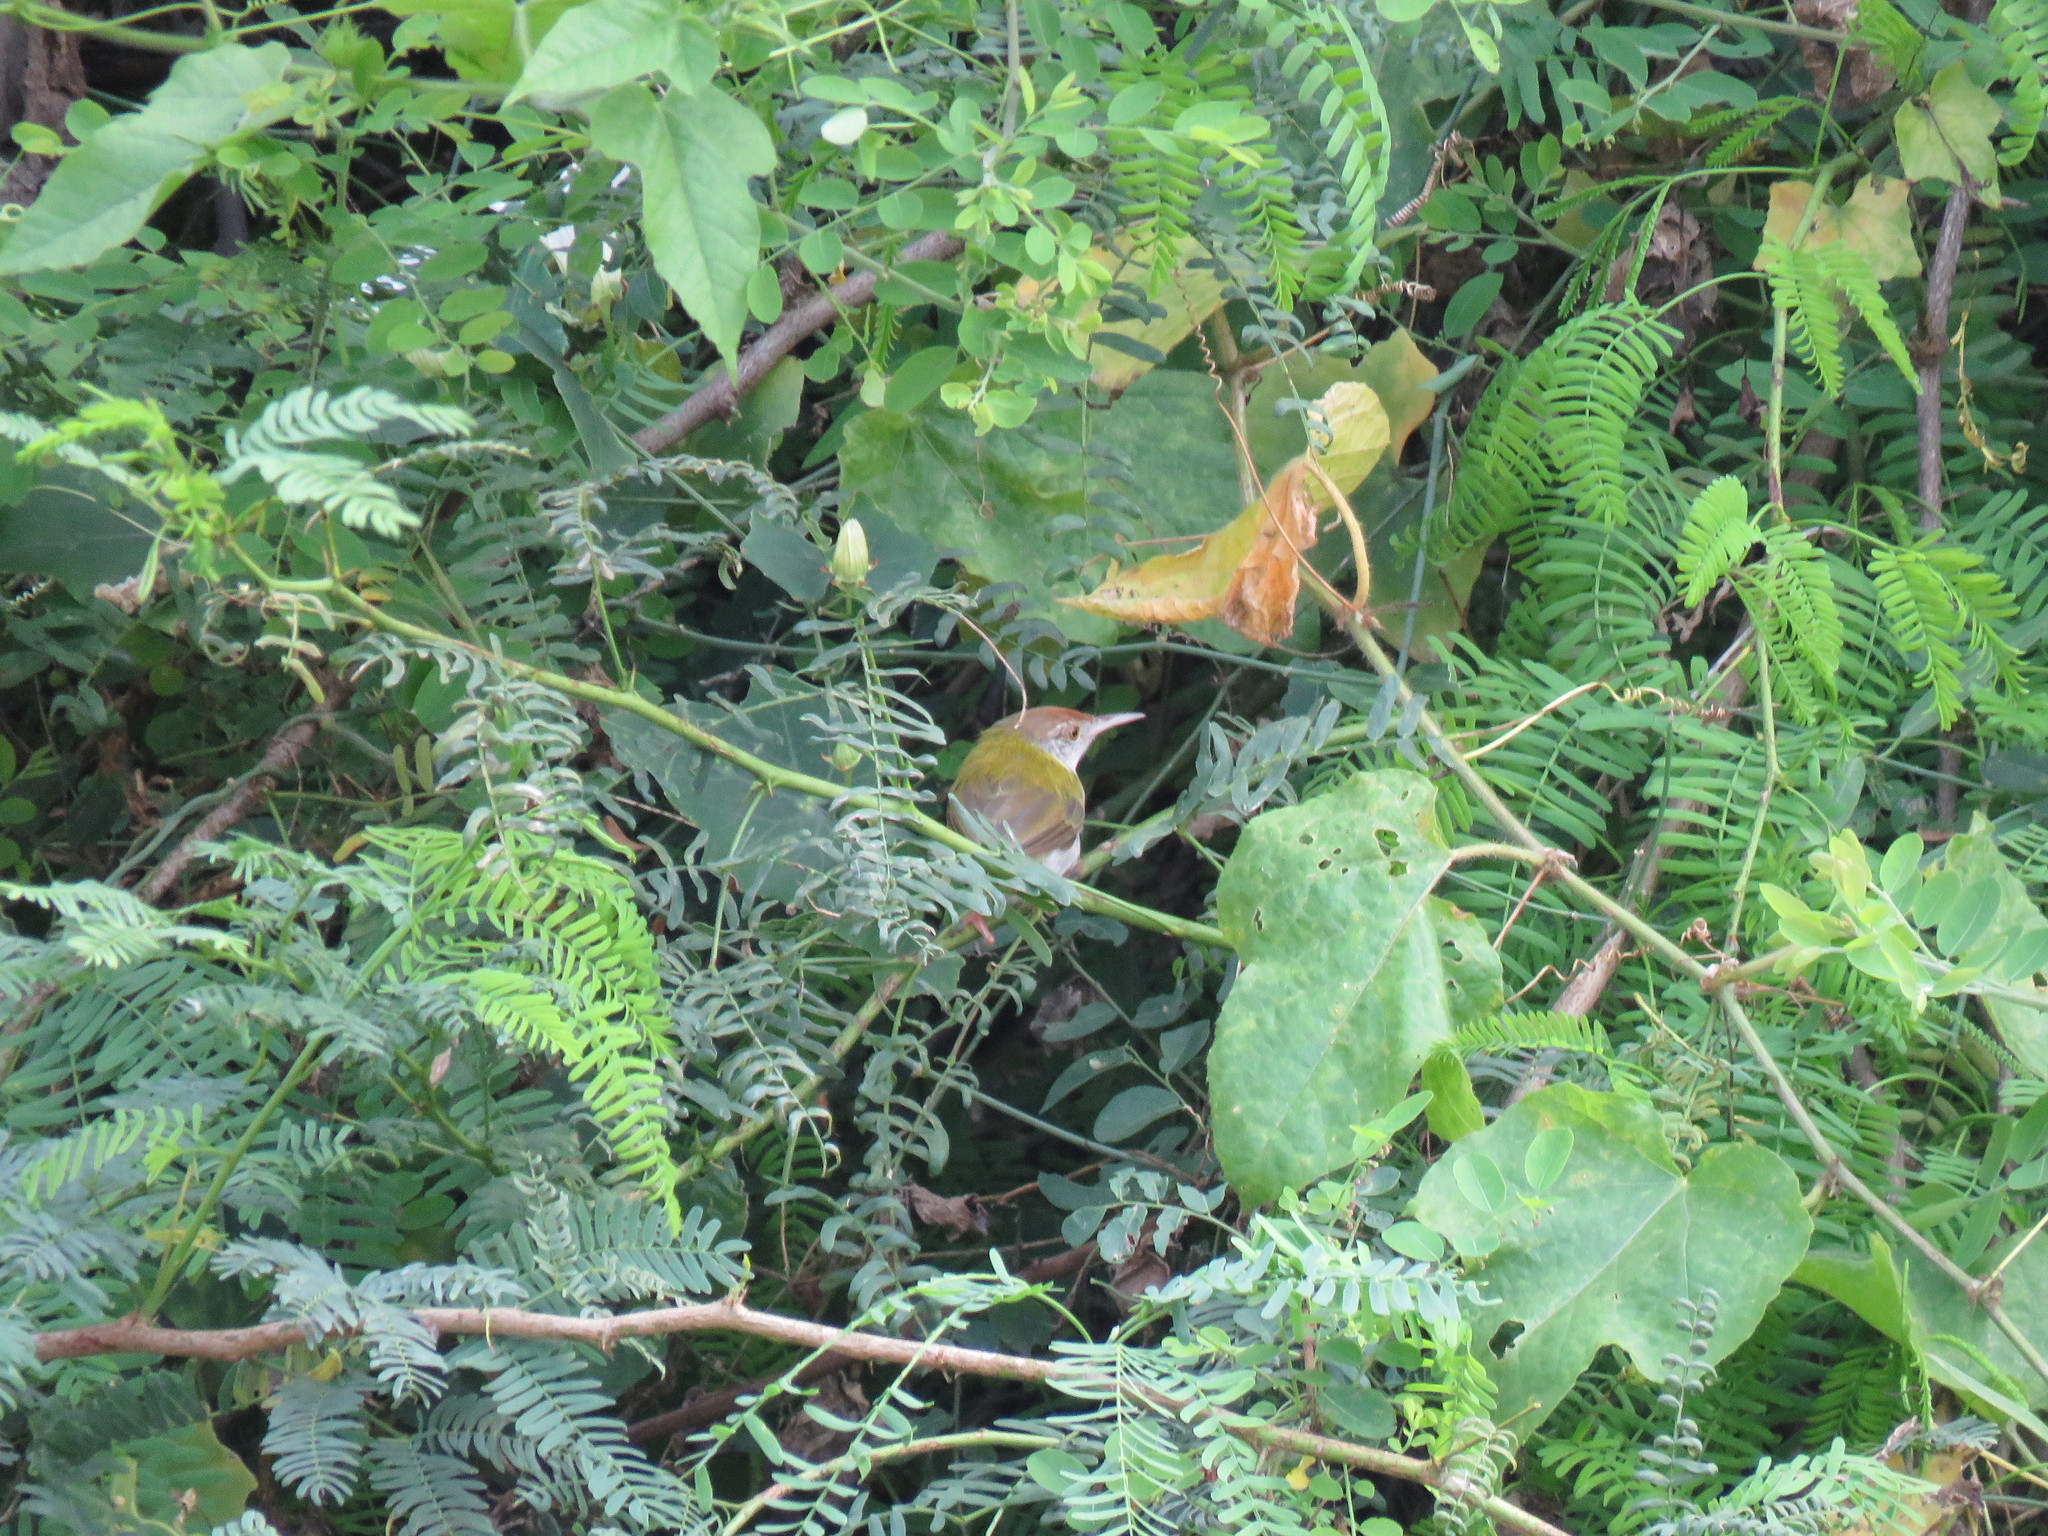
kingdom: Animalia
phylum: Chordata
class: Aves
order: Passeriformes
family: Cisticolidae
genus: Orthotomus
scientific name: Orthotomus sutorius
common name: Common tailorbird
